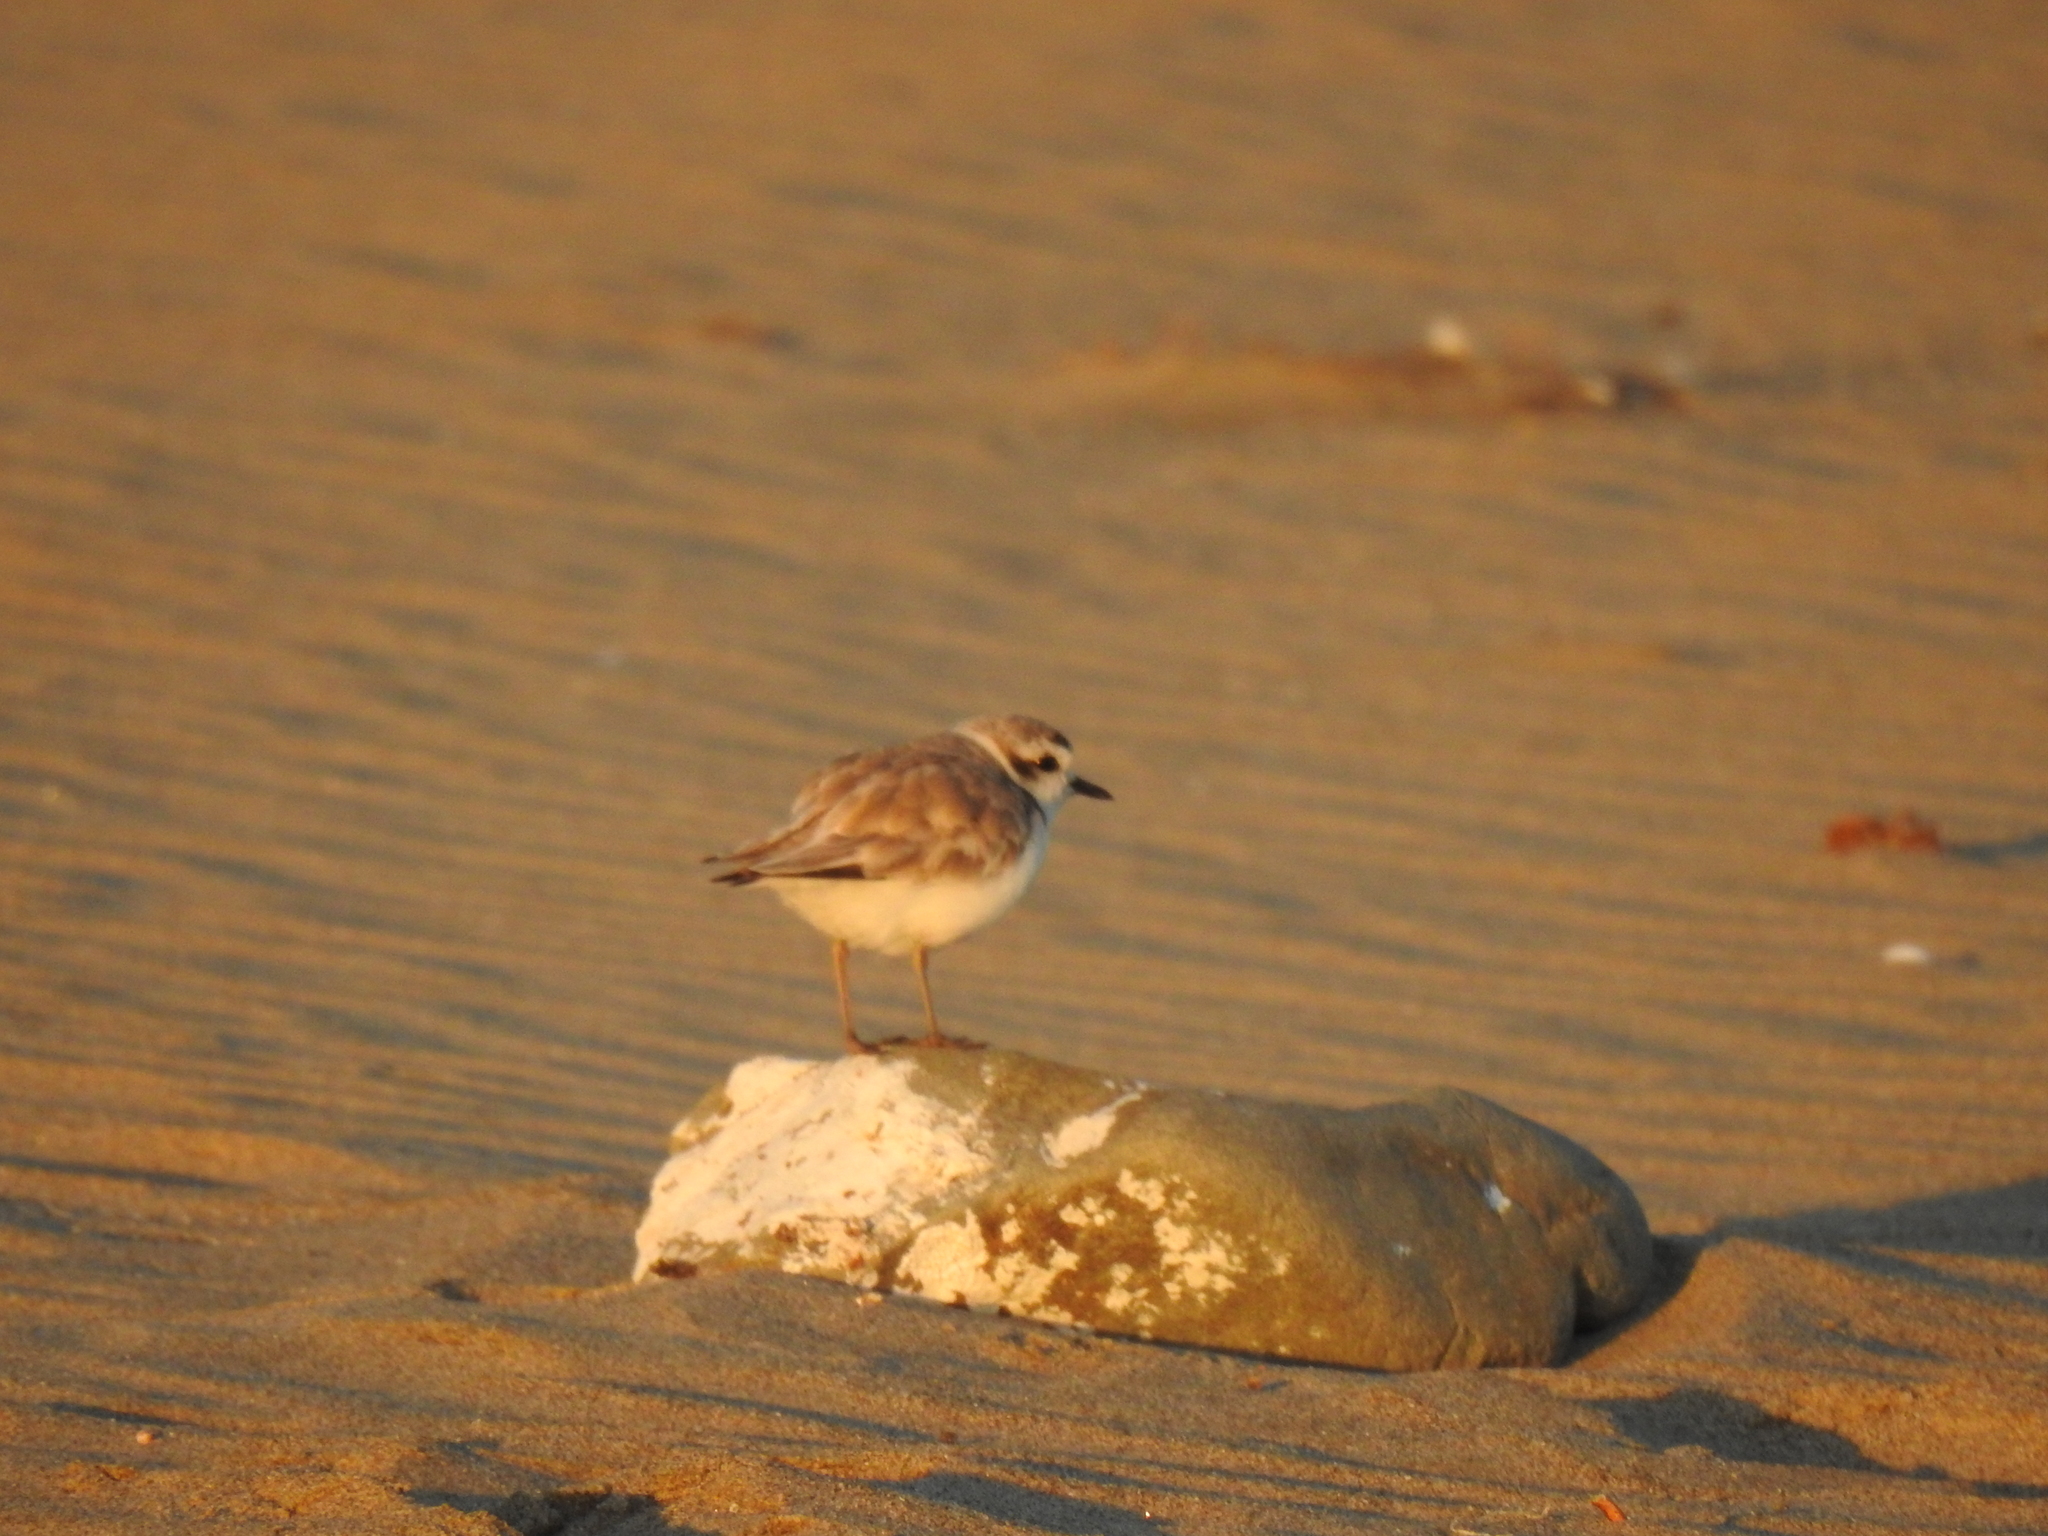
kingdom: Animalia
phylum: Chordata
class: Aves
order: Charadriiformes
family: Charadriidae
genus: Anarhynchus
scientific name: Anarhynchus
